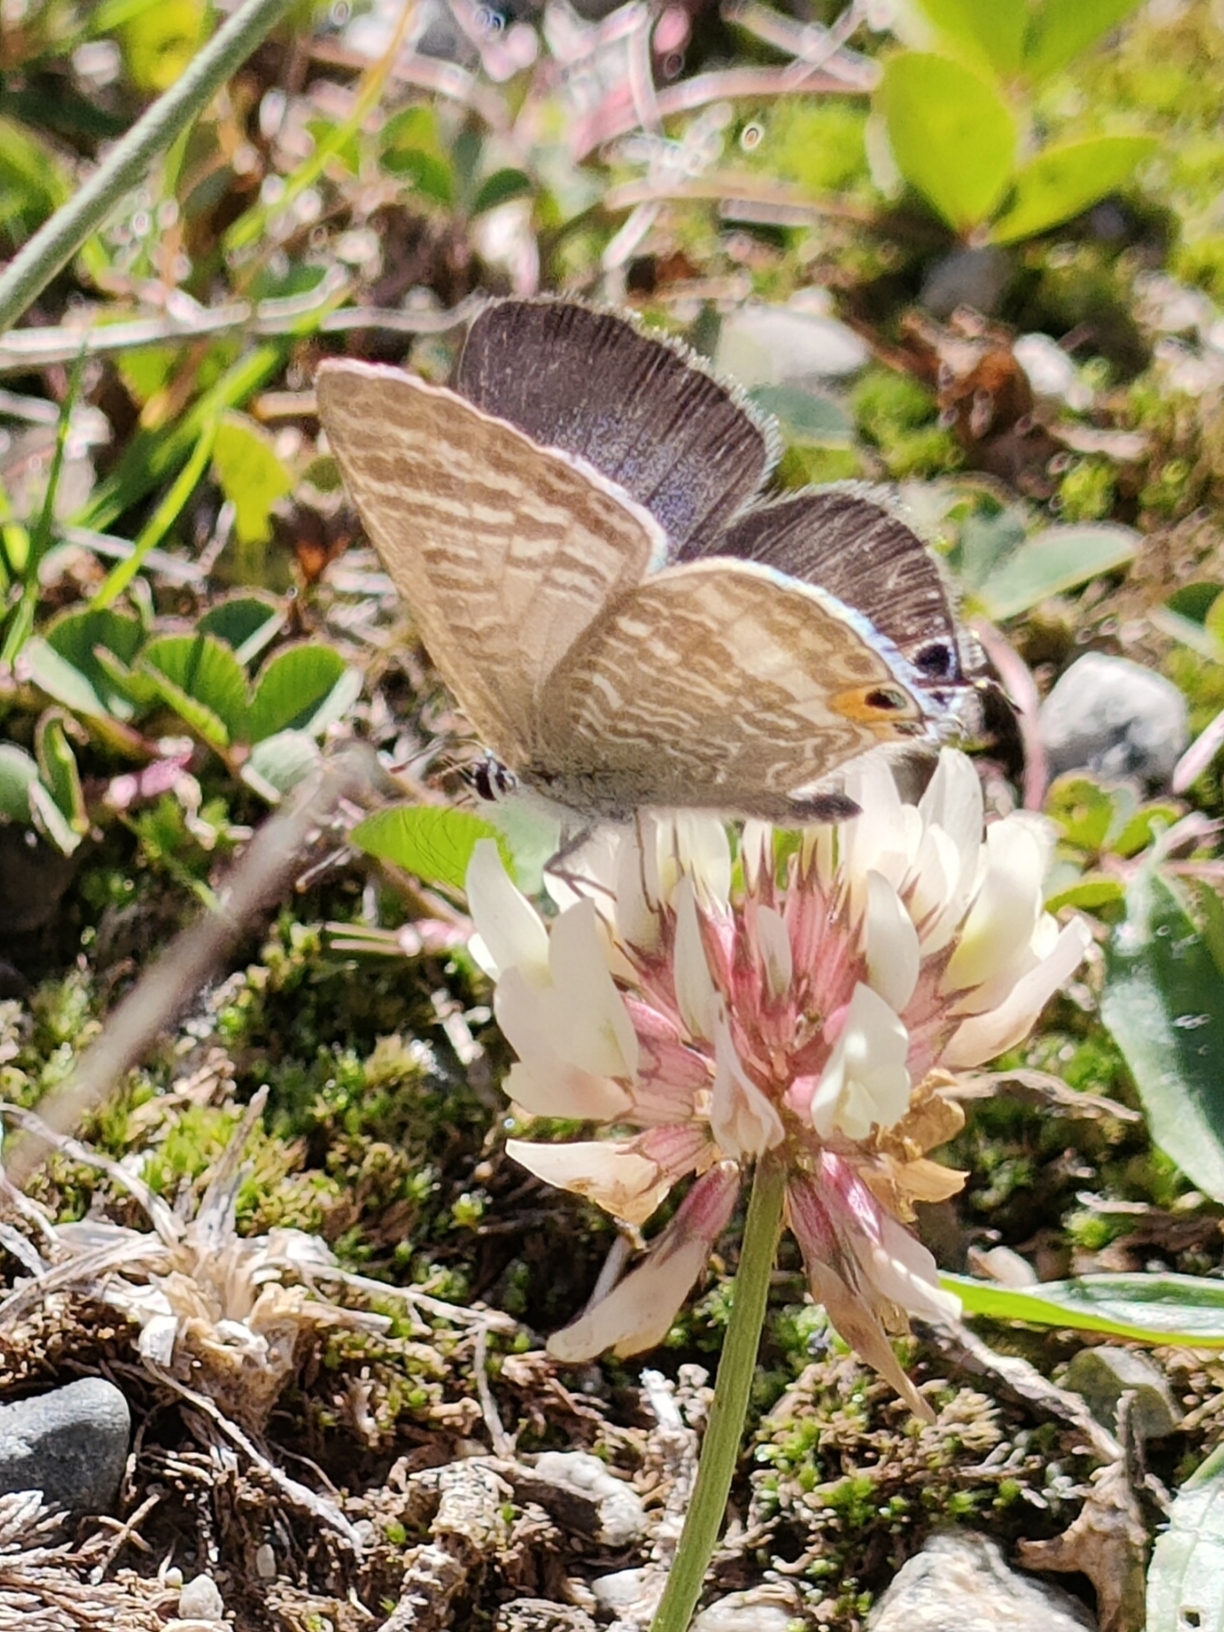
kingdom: Animalia
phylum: Arthropoda
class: Insecta
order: Lepidoptera
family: Lycaenidae
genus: Lampides
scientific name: Lampides boeticus
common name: Long-tailed blue
